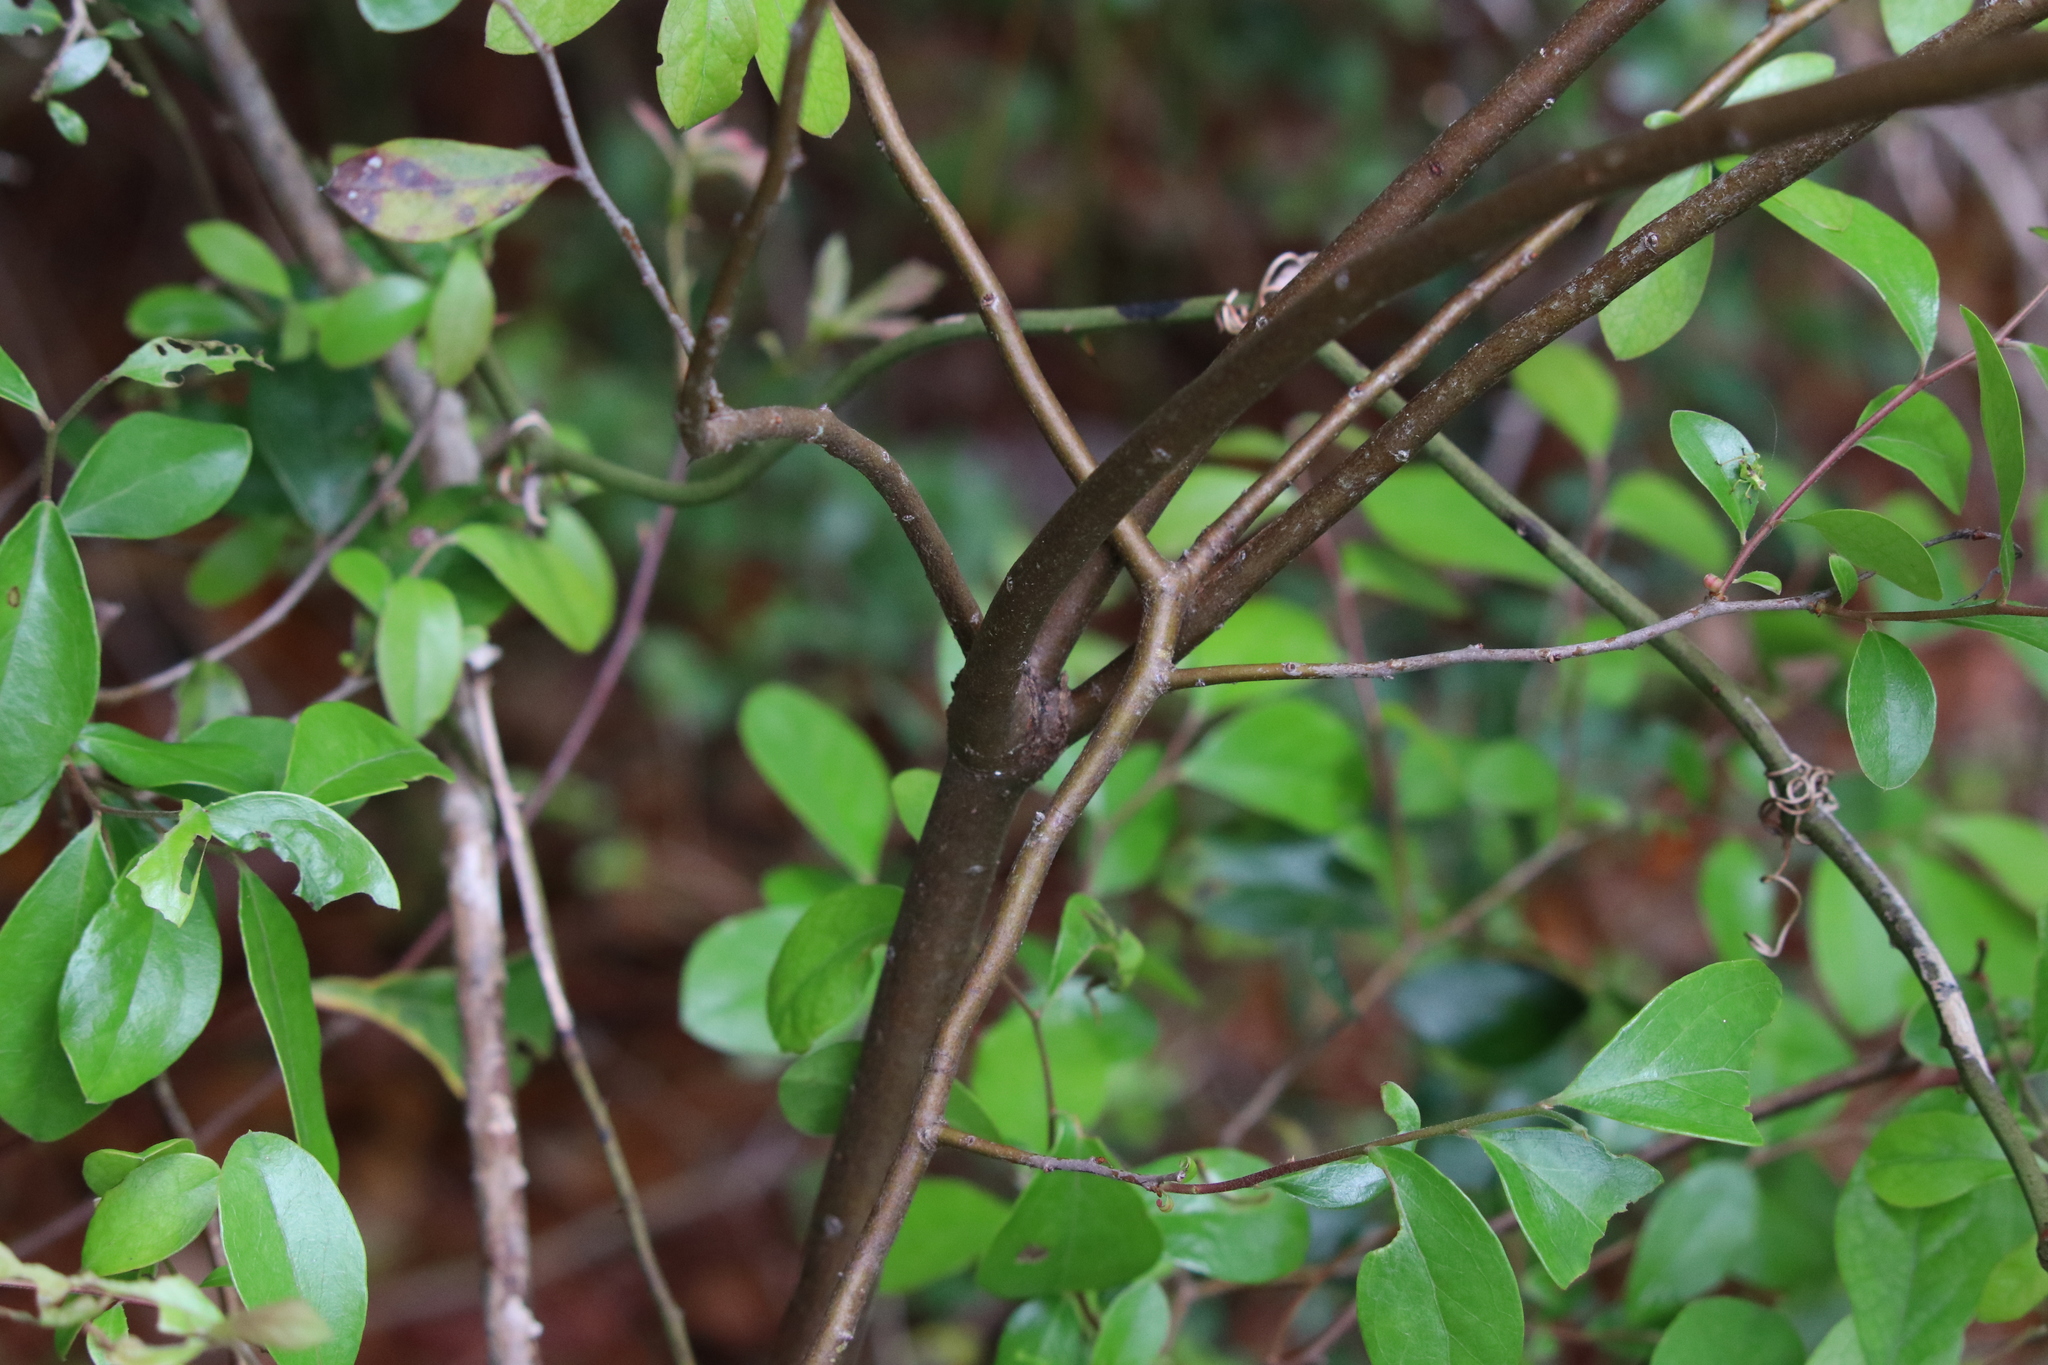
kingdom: Plantae
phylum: Tracheophyta
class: Magnoliopsida
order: Ericales
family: Ericaceae
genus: Vaccinium
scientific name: Vaccinium arboreum
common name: Farkleberry
